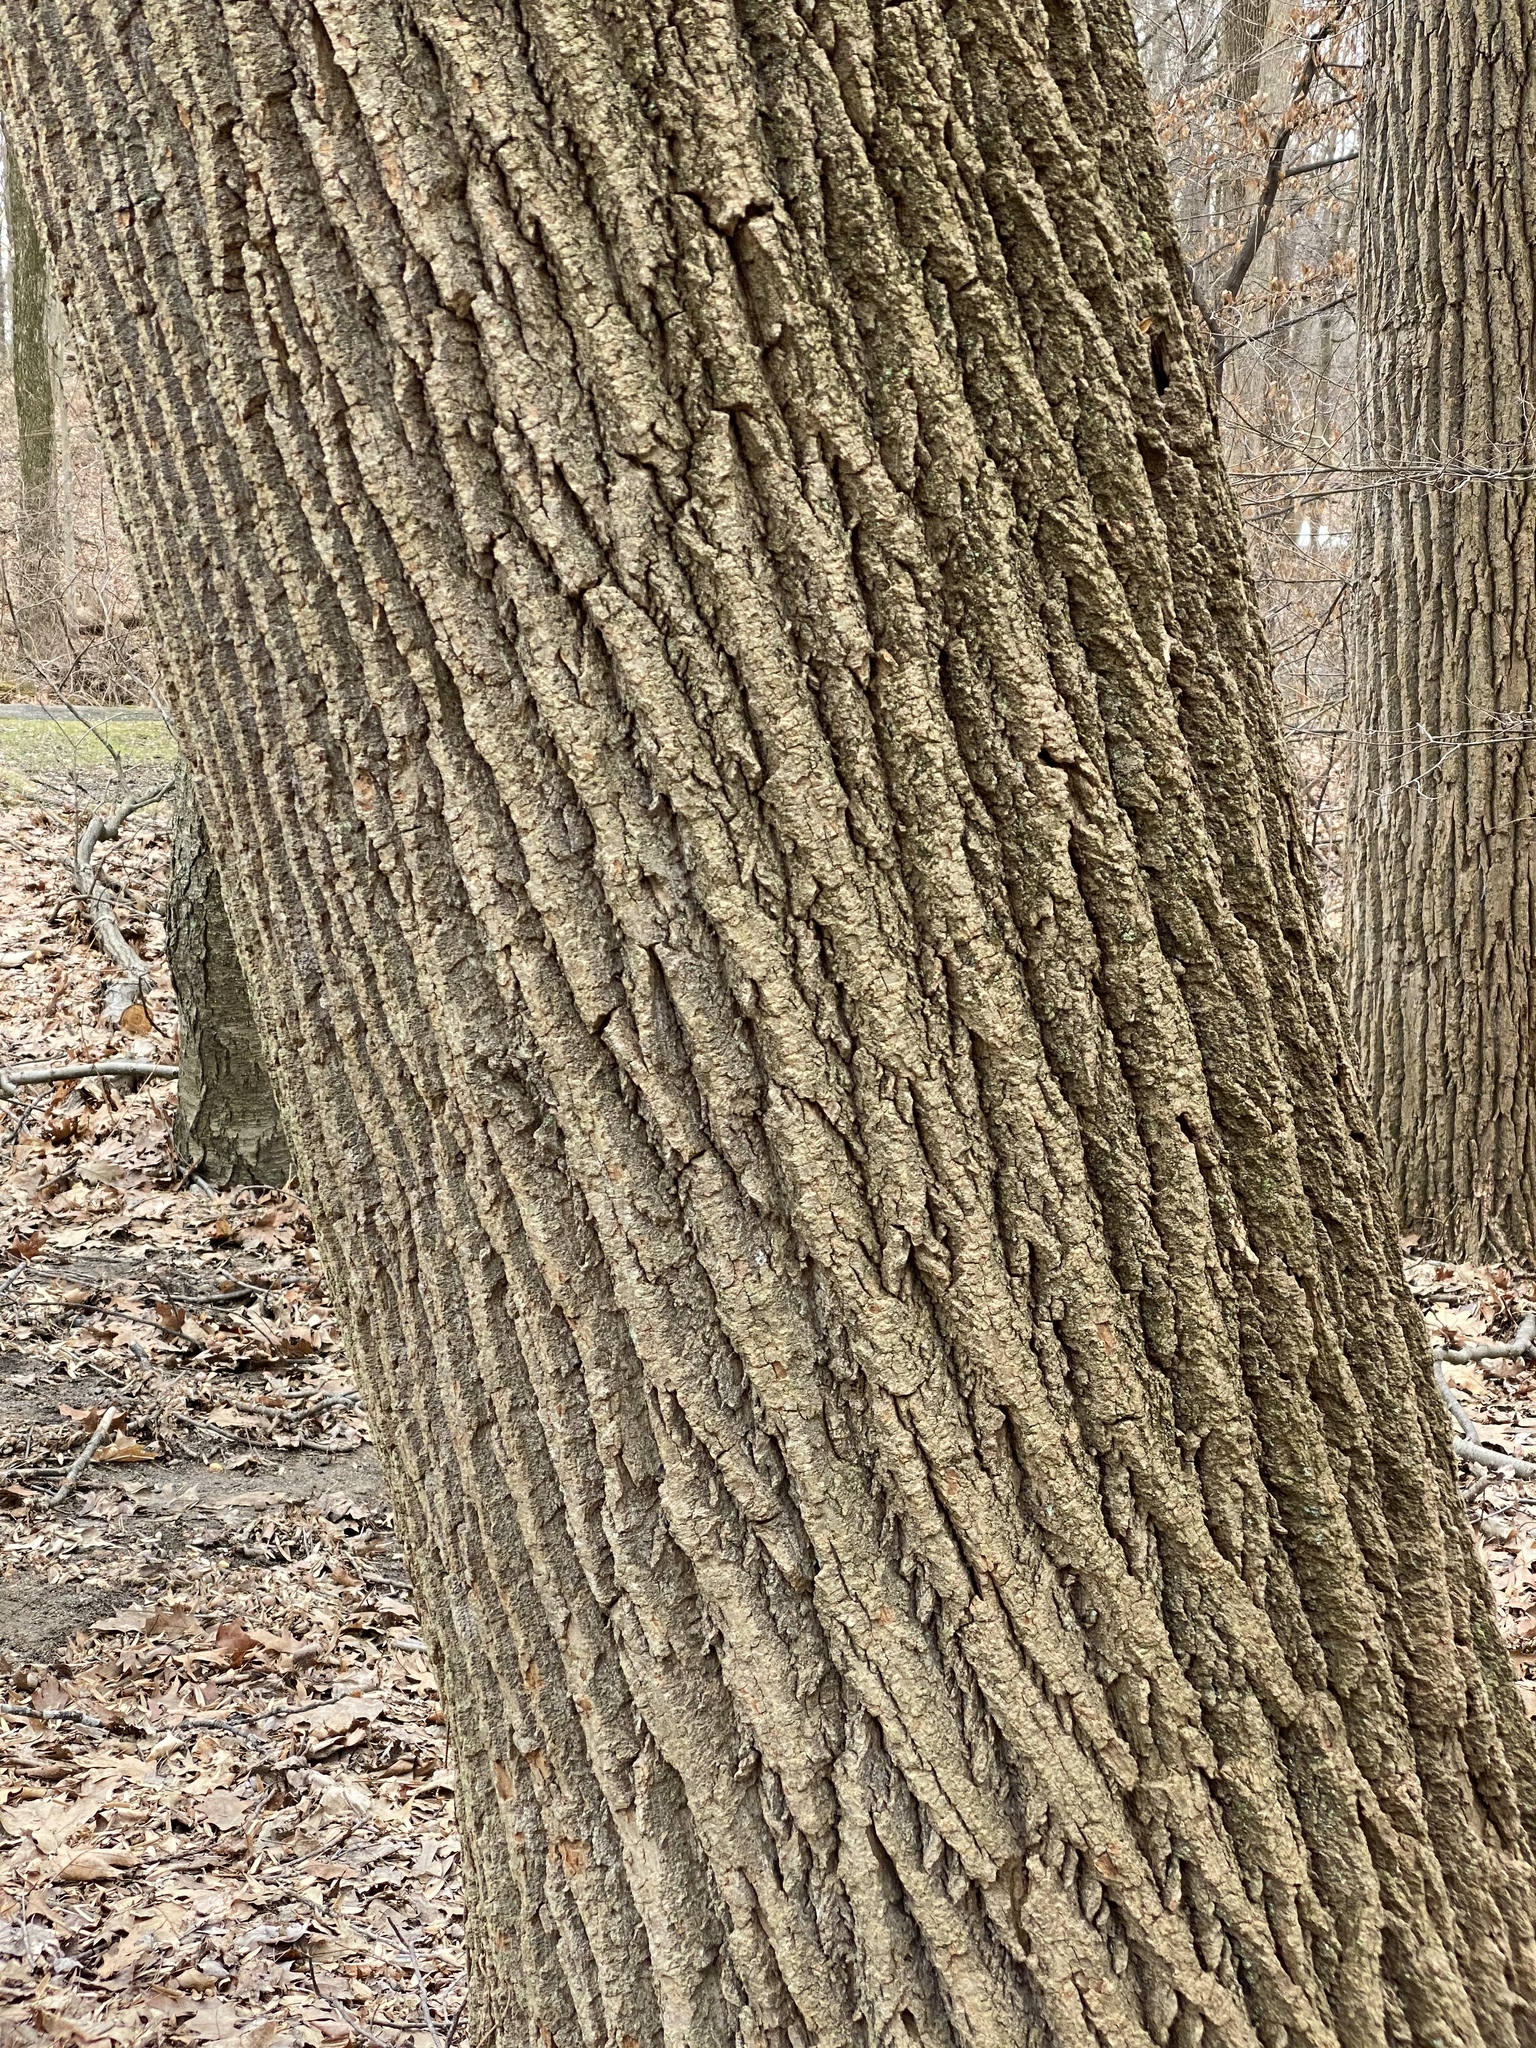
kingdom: Plantae
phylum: Tracheophyta
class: Magnoliopsida
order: Magnoliales
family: Magnoliaceae
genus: Liriodendron
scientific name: Liriodendron tulipifera
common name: Tulip tree
